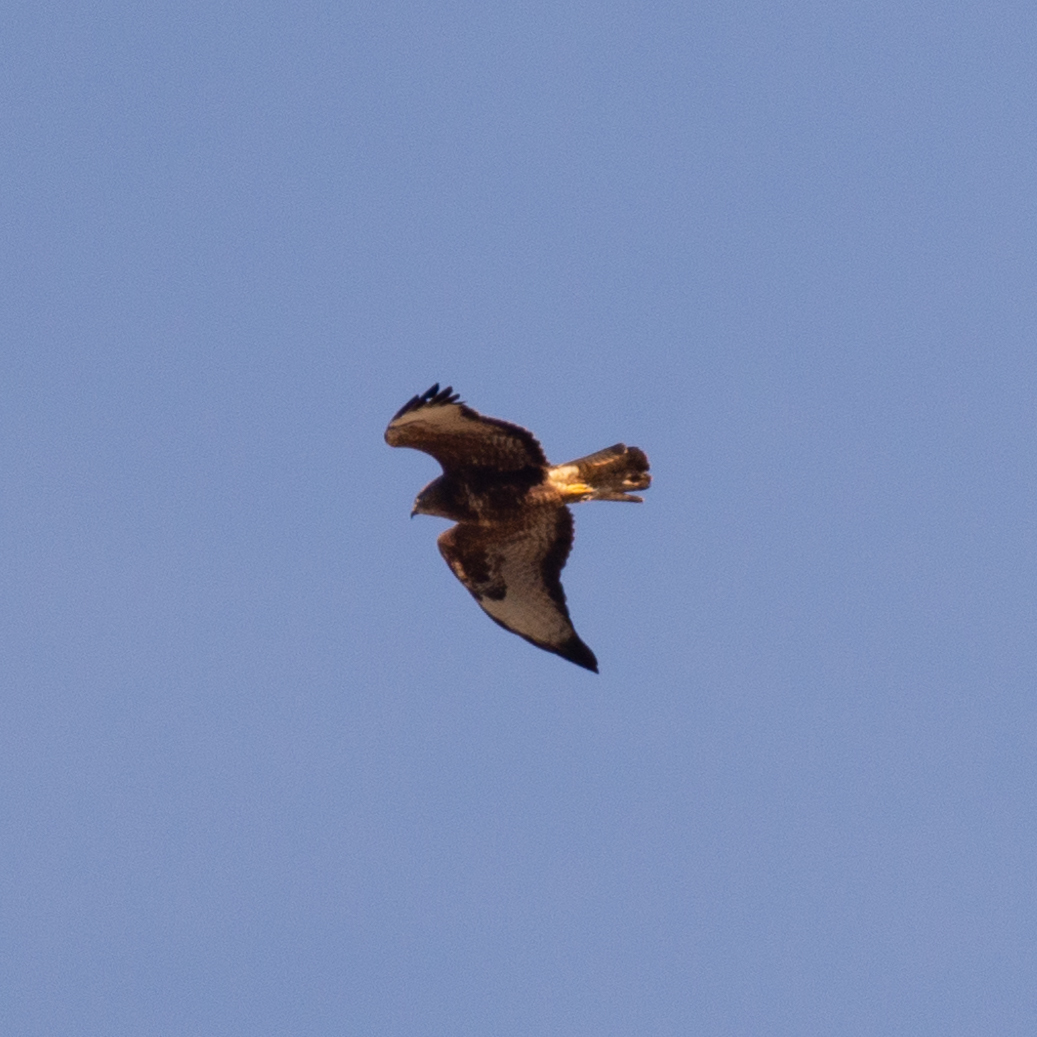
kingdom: Animalia
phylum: Chordata
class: Aves
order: Accipitriformes
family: Accipitridae
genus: Buteo
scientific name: Buteo buteo
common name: Common buzzard
